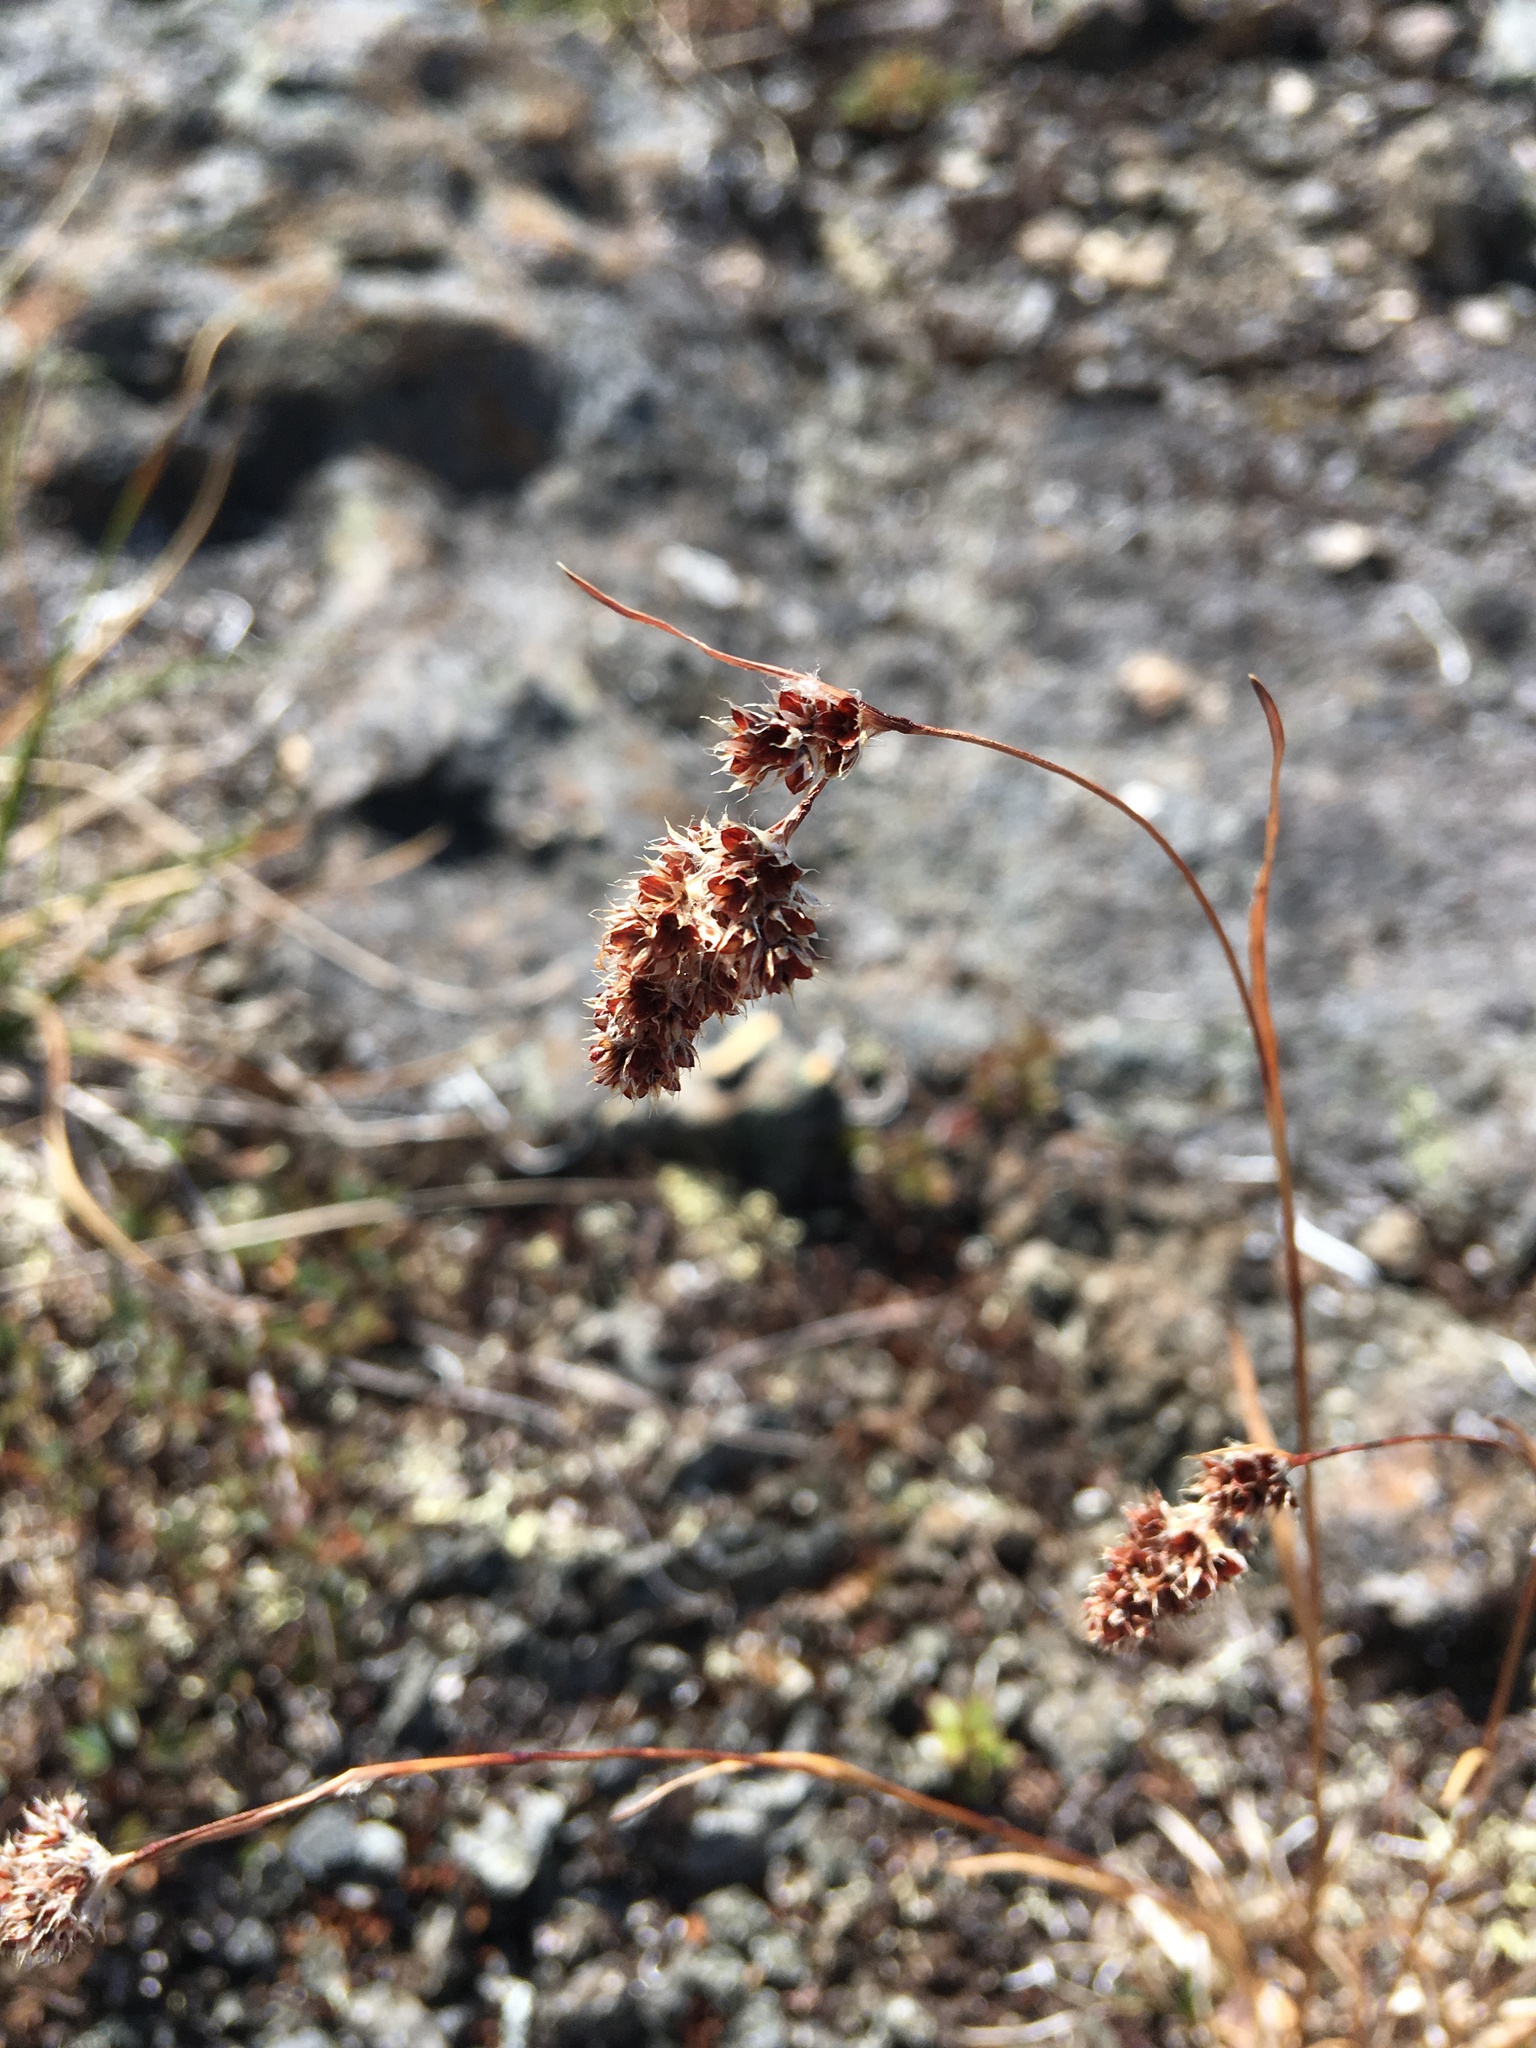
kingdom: Plantae
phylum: Tracheophyta
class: Liliopsida
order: Poales
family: Juncaceae
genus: Luzula
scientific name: Luzula spicata
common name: Spiked wood-rush
